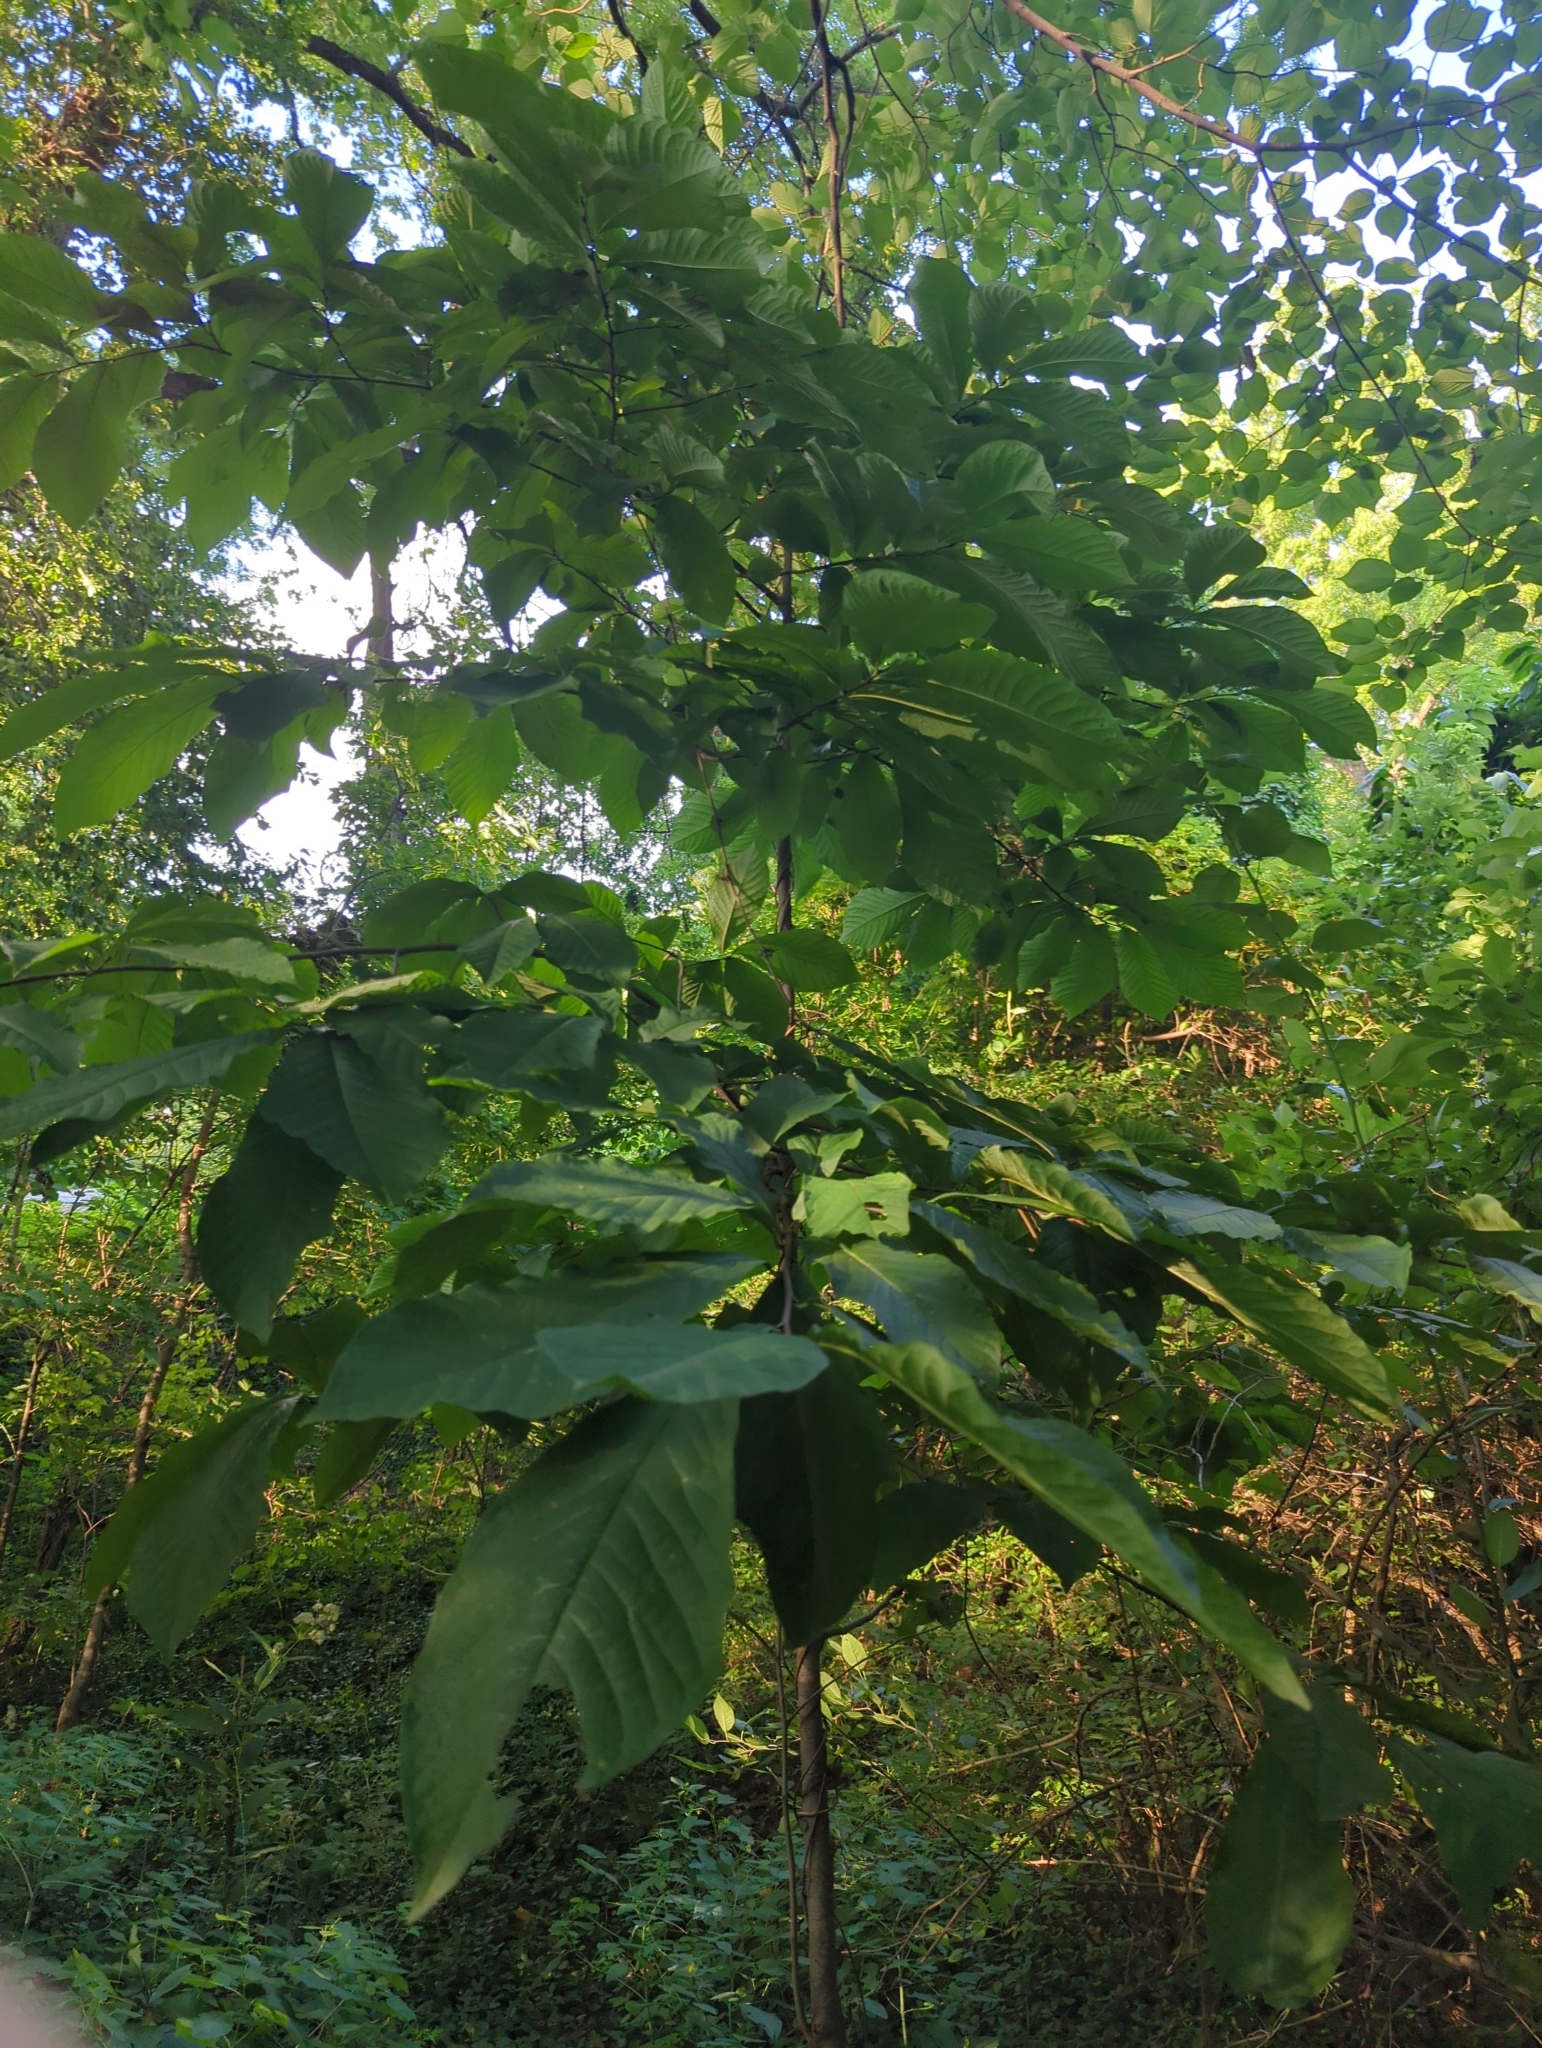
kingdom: Plantae
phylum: Tracheophyta
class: Magnoliopsida
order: Magnoliales
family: Annonaceae
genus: Asimina
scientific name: Asimina triloba
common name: Dog-banana
